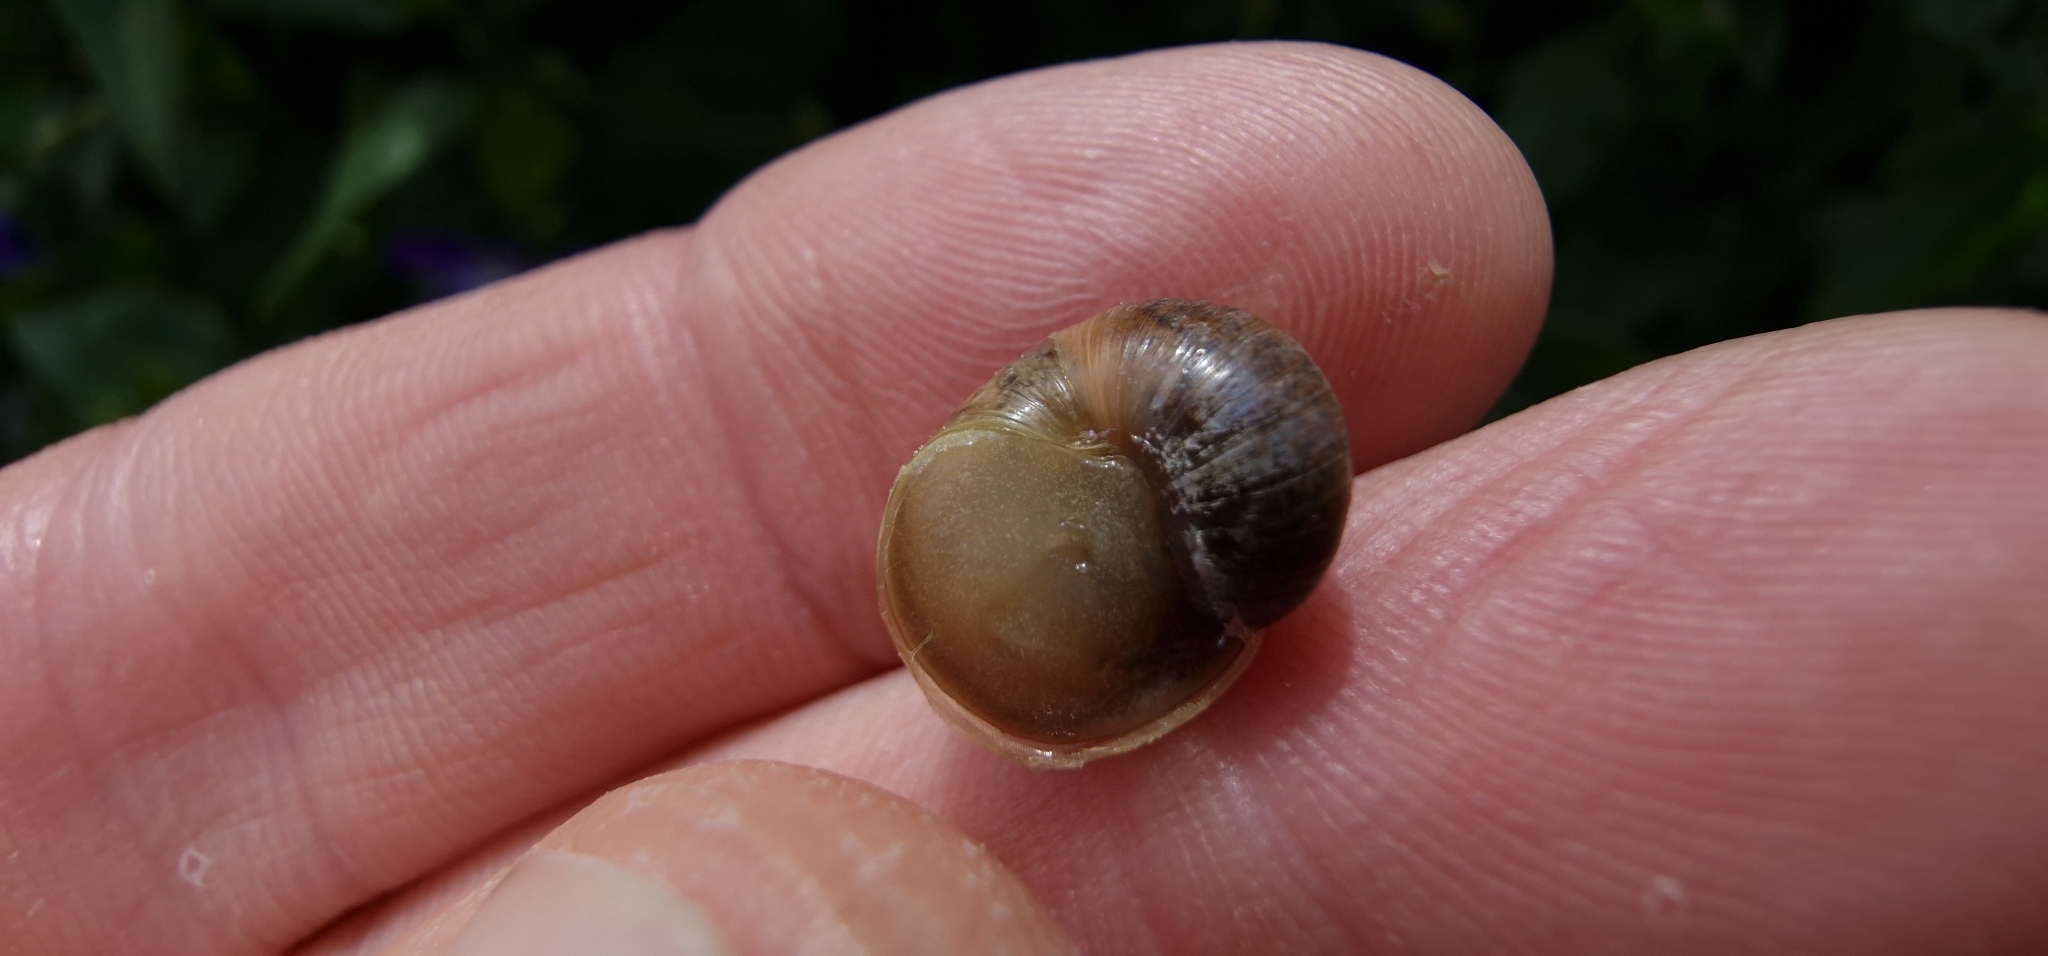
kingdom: Animalia
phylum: Mollusca
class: Gastropoda
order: Stylommatophora
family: Helicidae
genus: Cornu
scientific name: Cornu aspersum
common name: Brown garden snail
